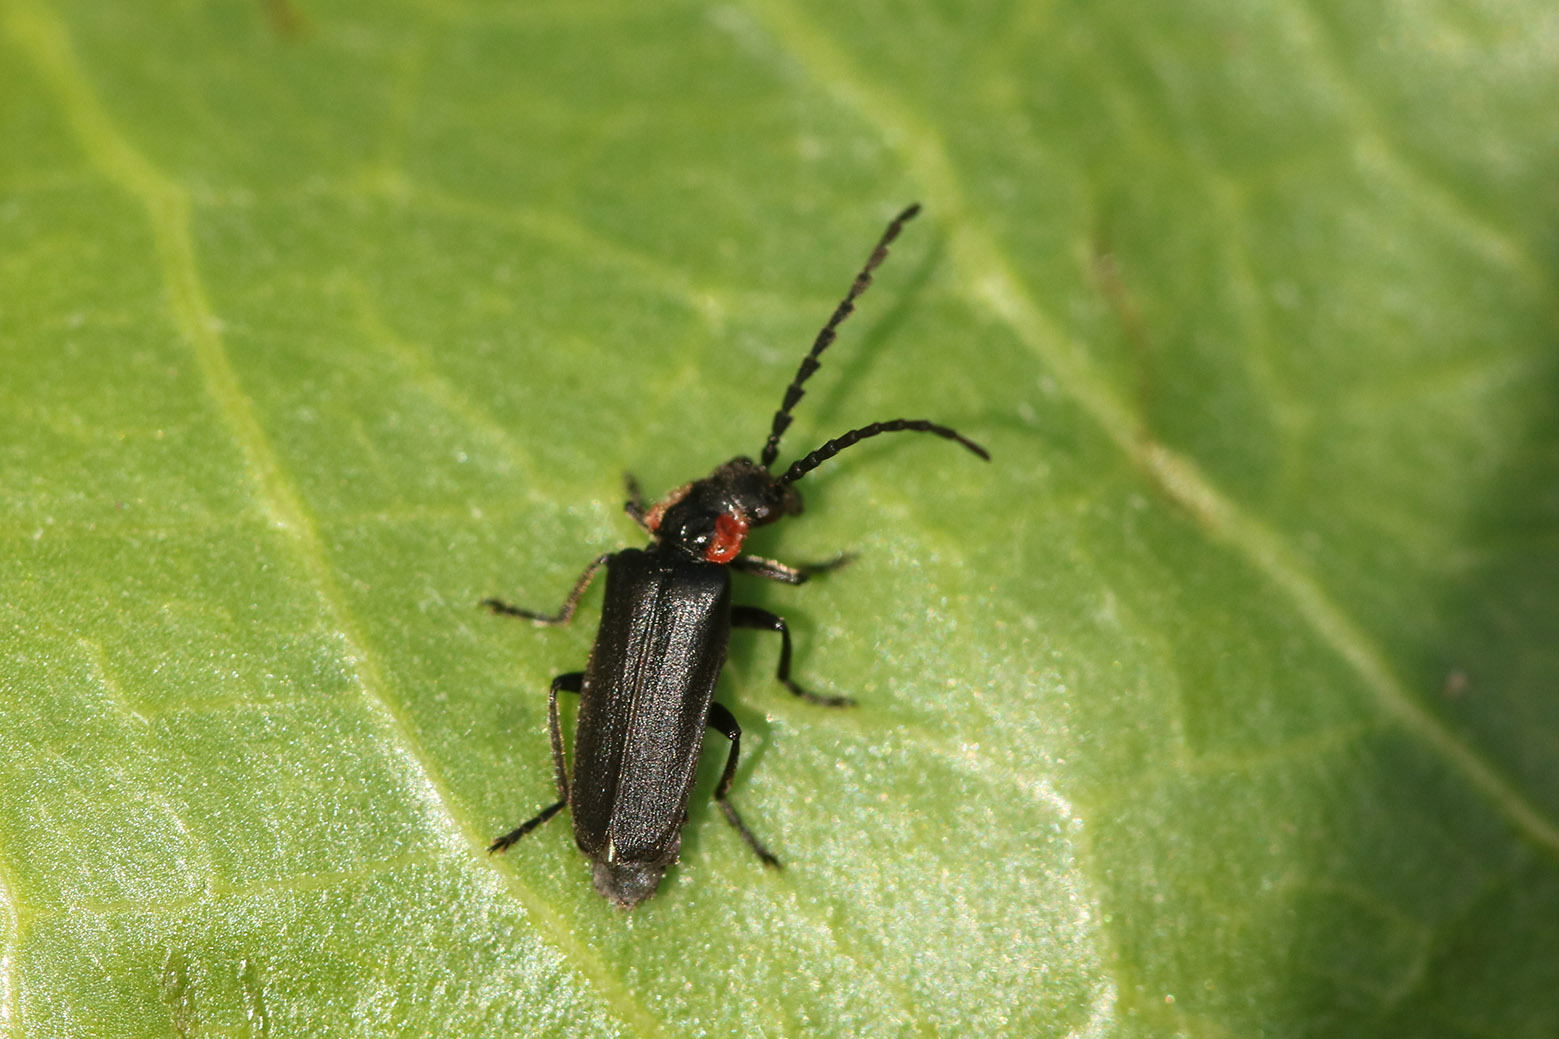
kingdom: Animalia
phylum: Arthropoda
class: Insecta
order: Coleoptera
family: Cantharidae
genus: Polemius
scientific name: Polemius
